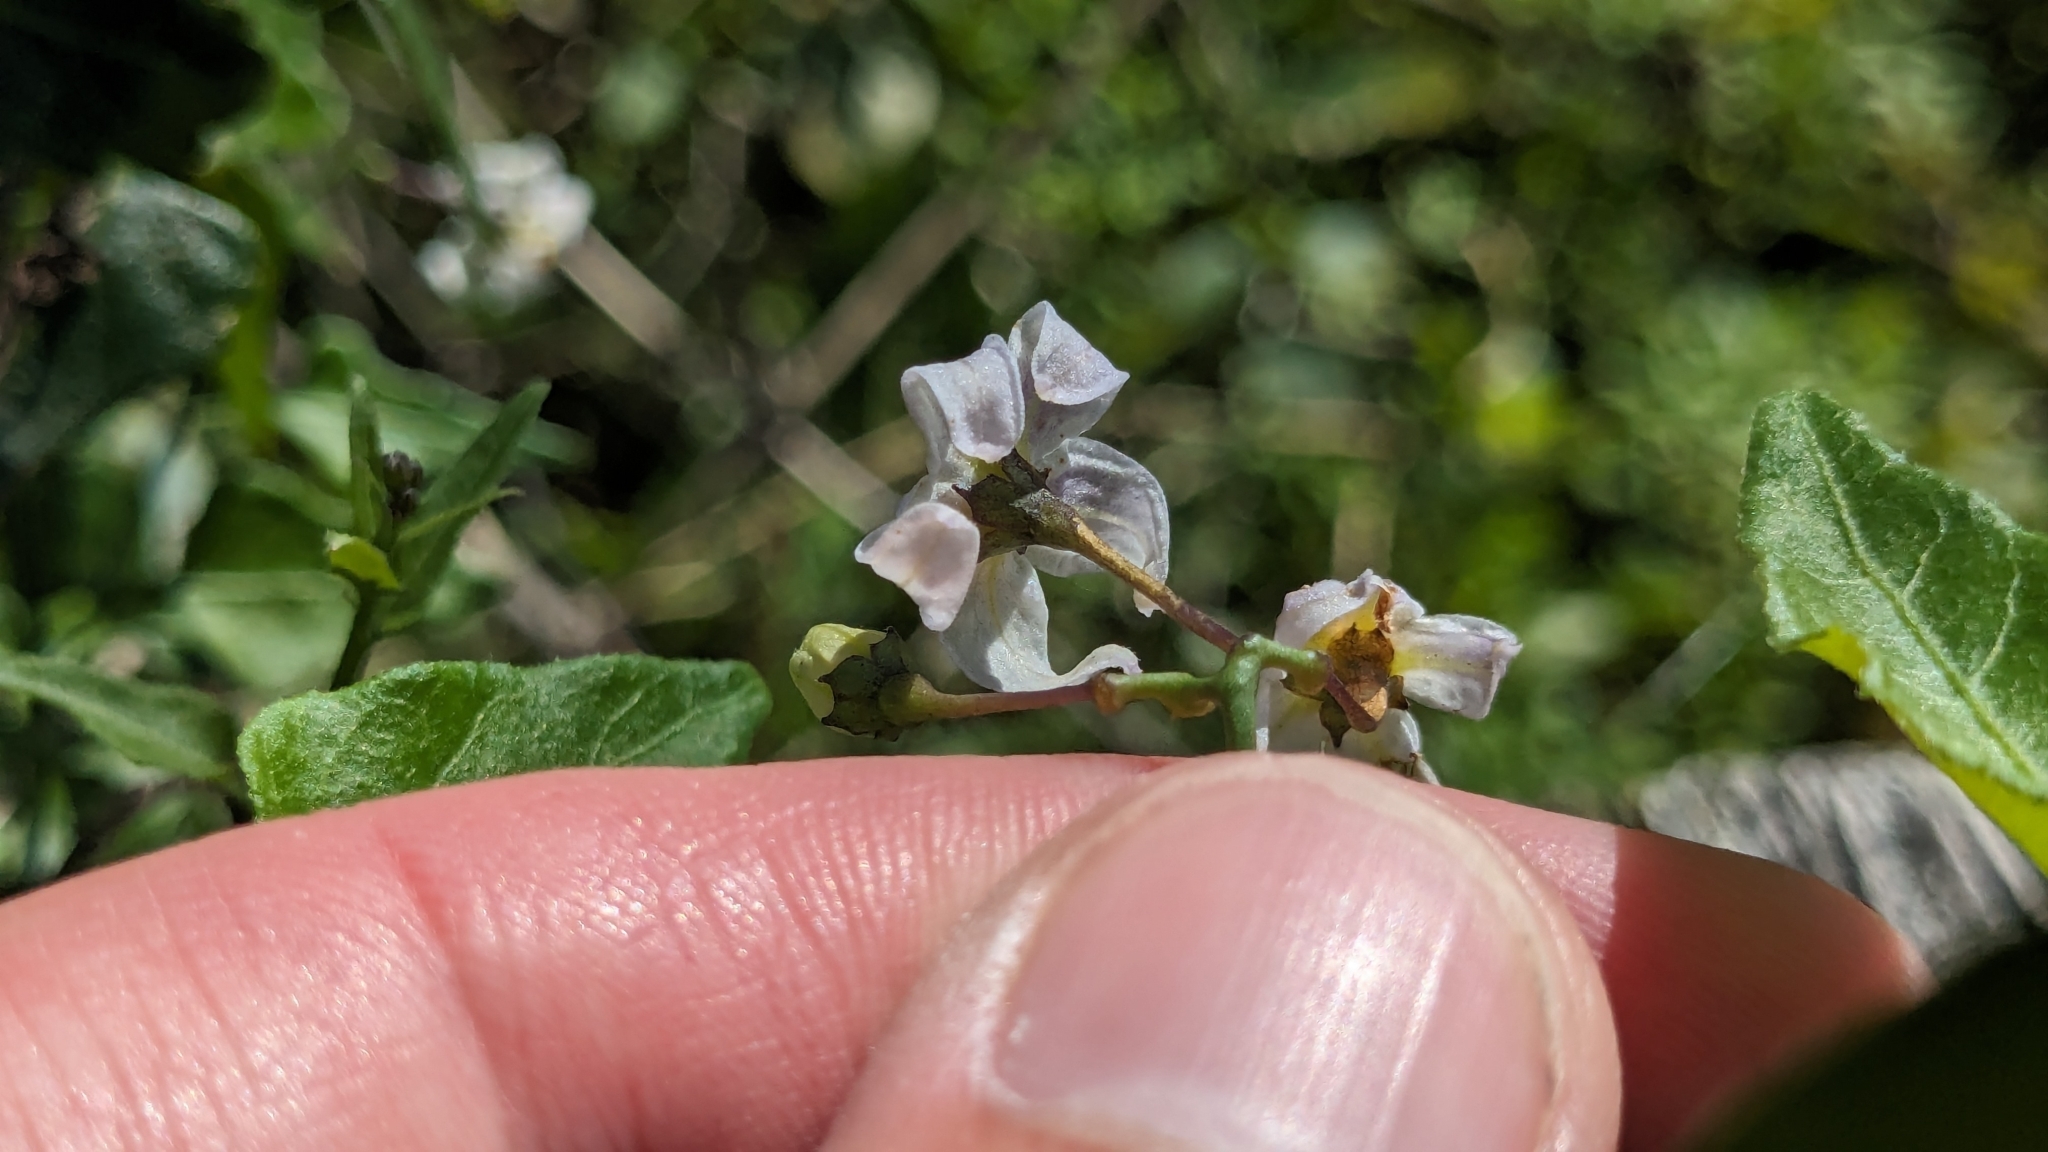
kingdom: Plantae
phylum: Tracheophyta
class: Magnoliopsida
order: Solanales
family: Solanaceae
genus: Solanum
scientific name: Solanum triquetrum
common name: Texas nightshade
